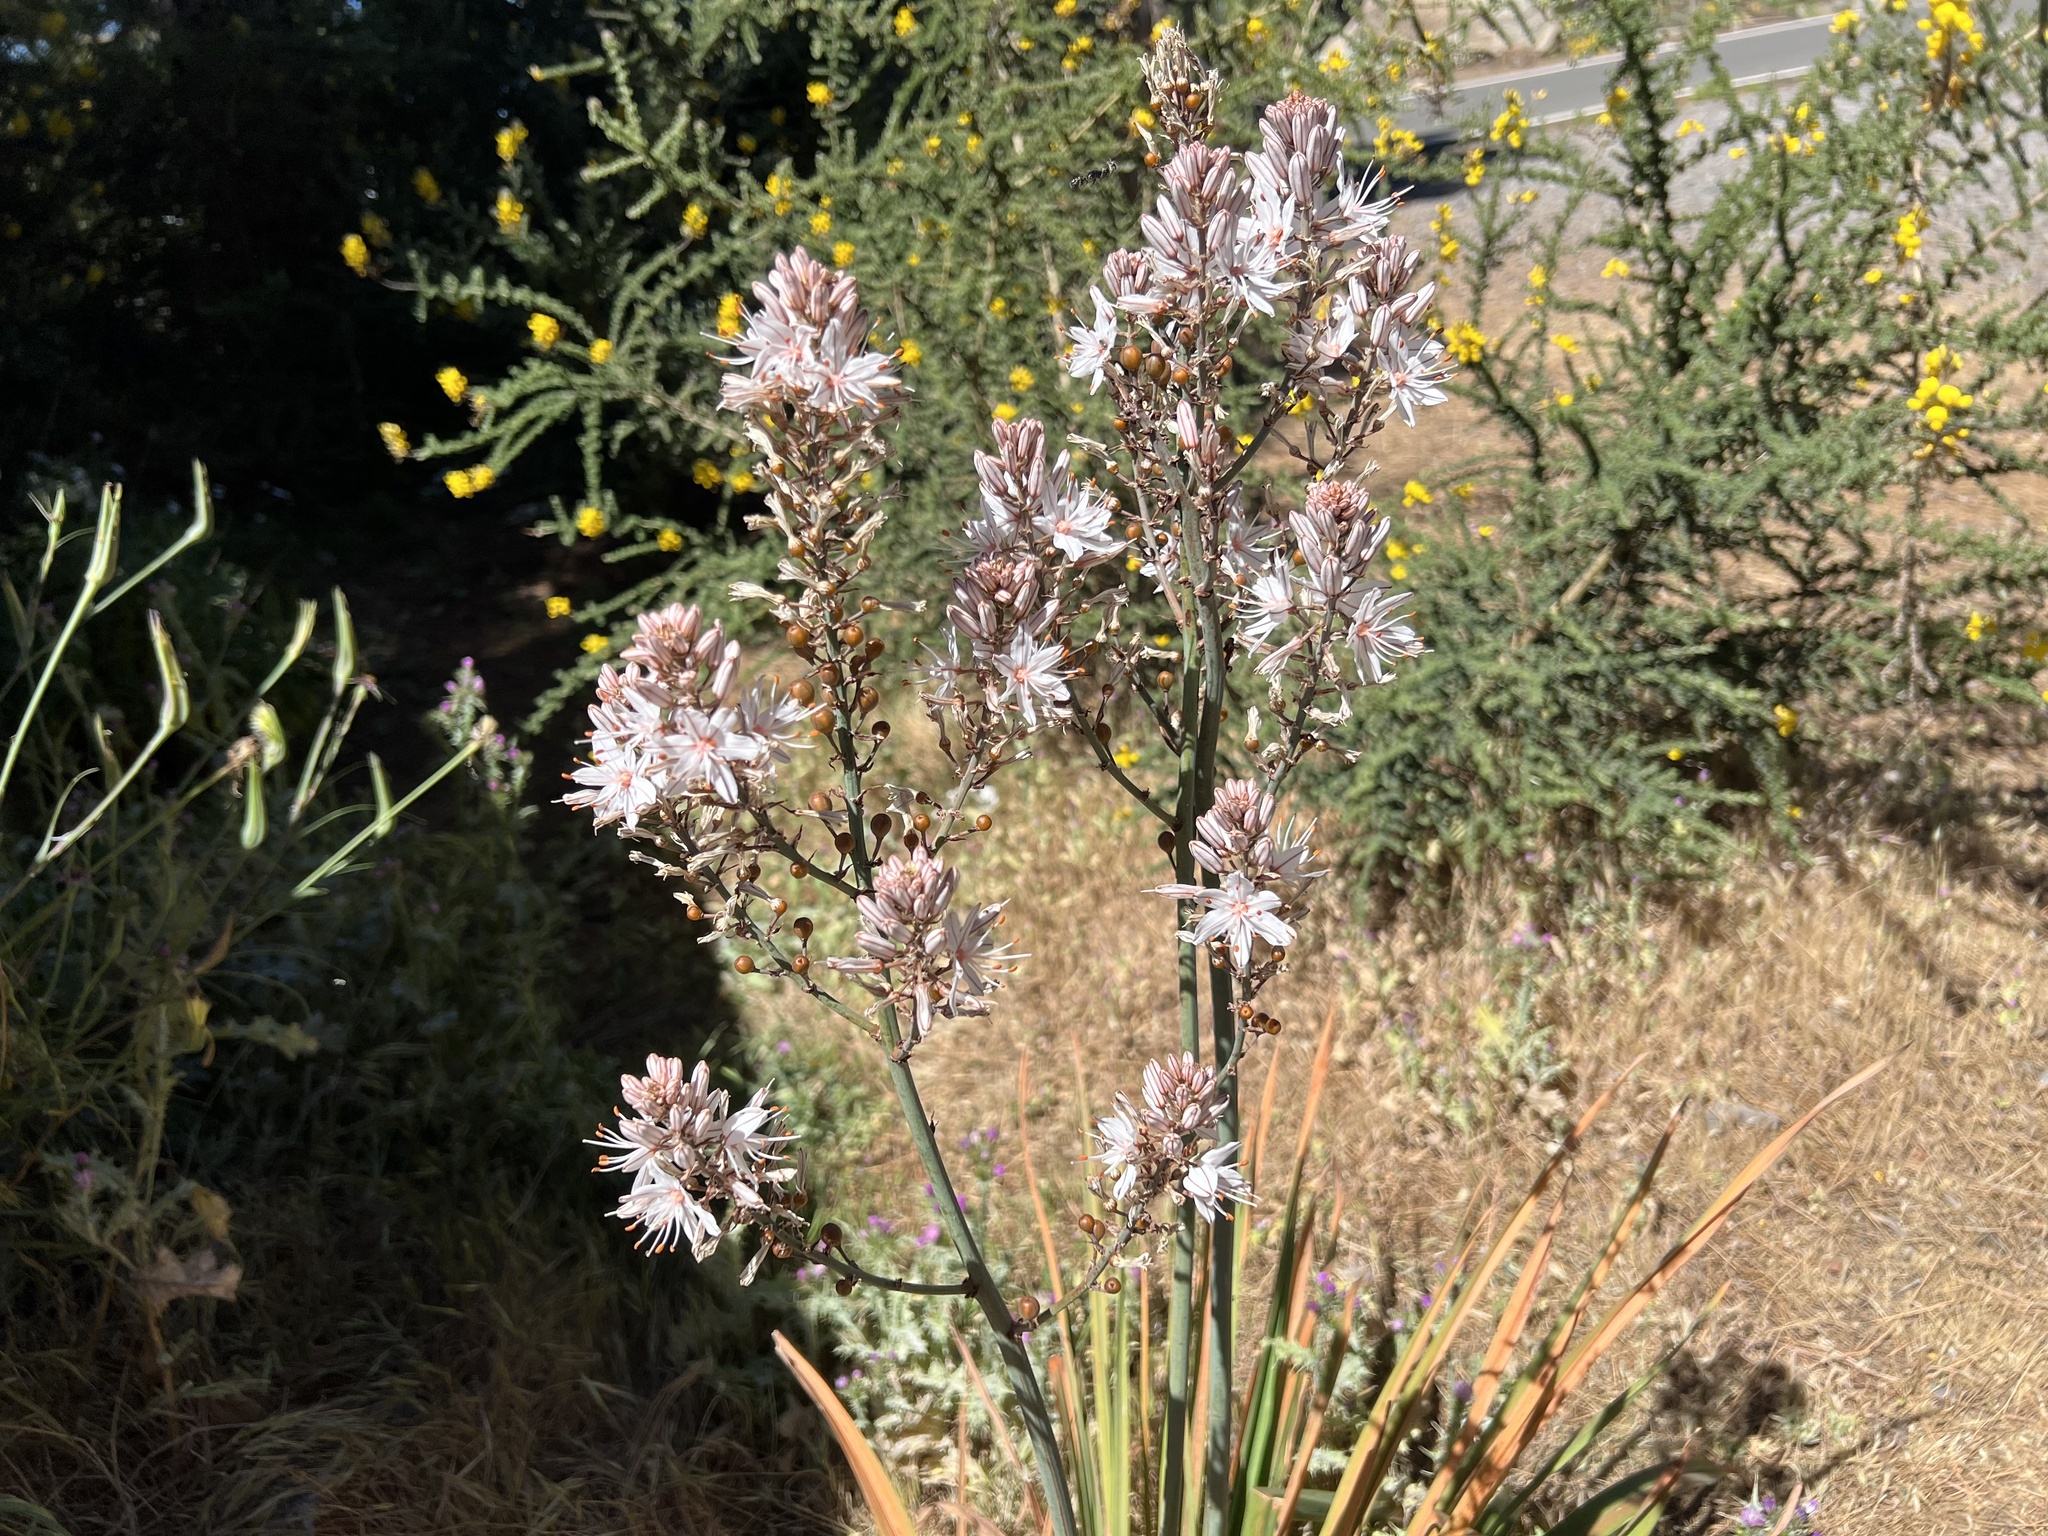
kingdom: Plantae
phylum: Tracheophyta
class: Liliopsida
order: Asparagales
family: Asphodelaceae
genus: Asphodelus
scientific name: Asphodelus ramosus
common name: Silverrod
